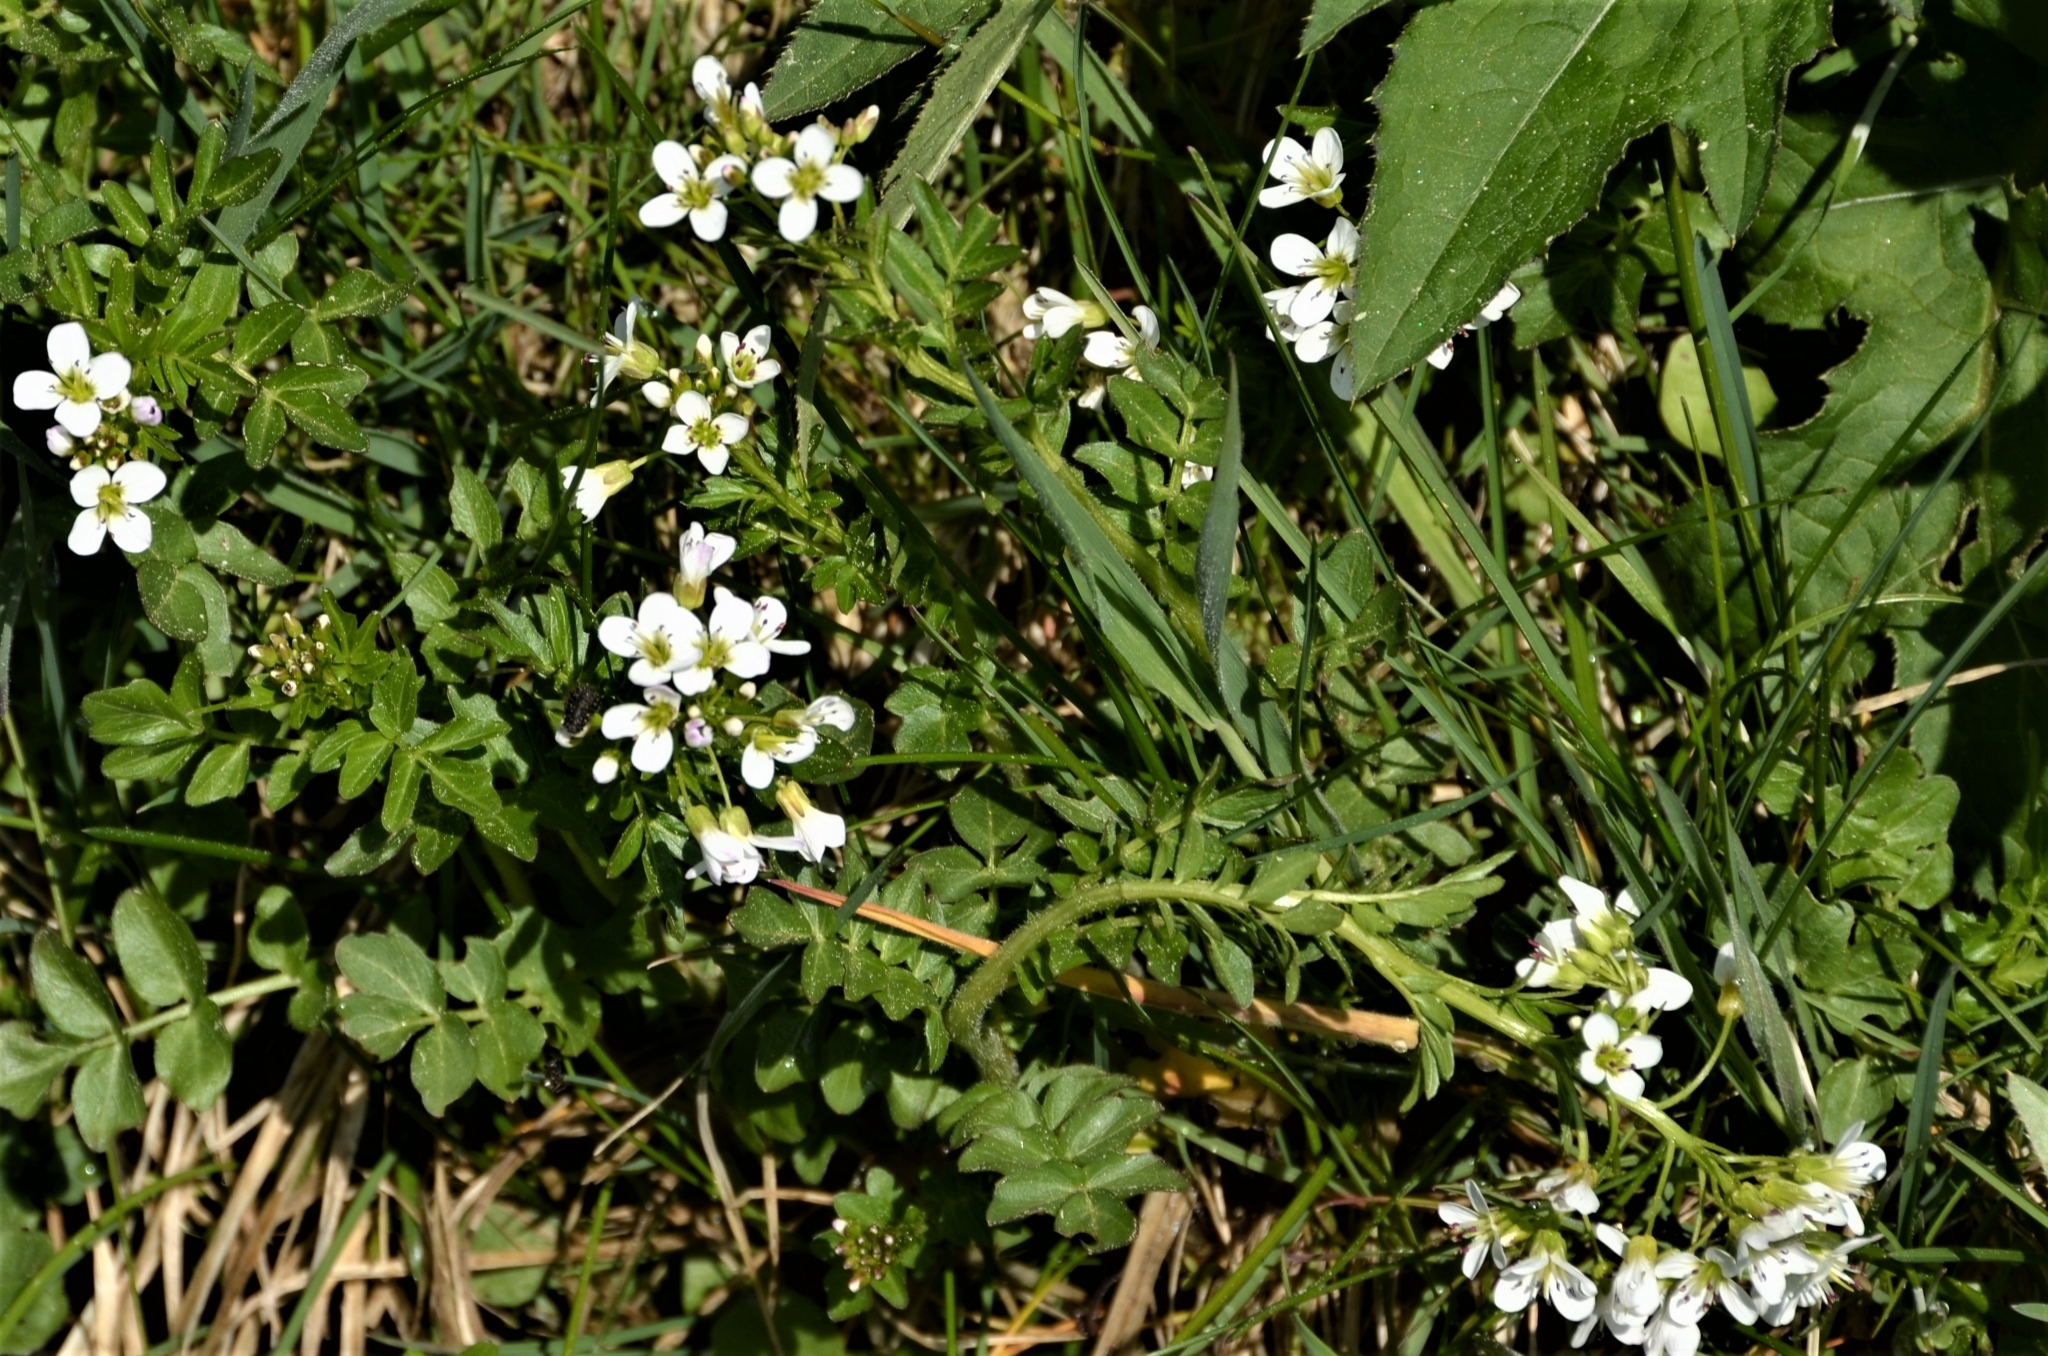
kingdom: Plantae
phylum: Tracheophyta
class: Magnoliopsida
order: Brassicales
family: Brassicaceae
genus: Cardamine
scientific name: Cardamine amara
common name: Large bitter-cress
